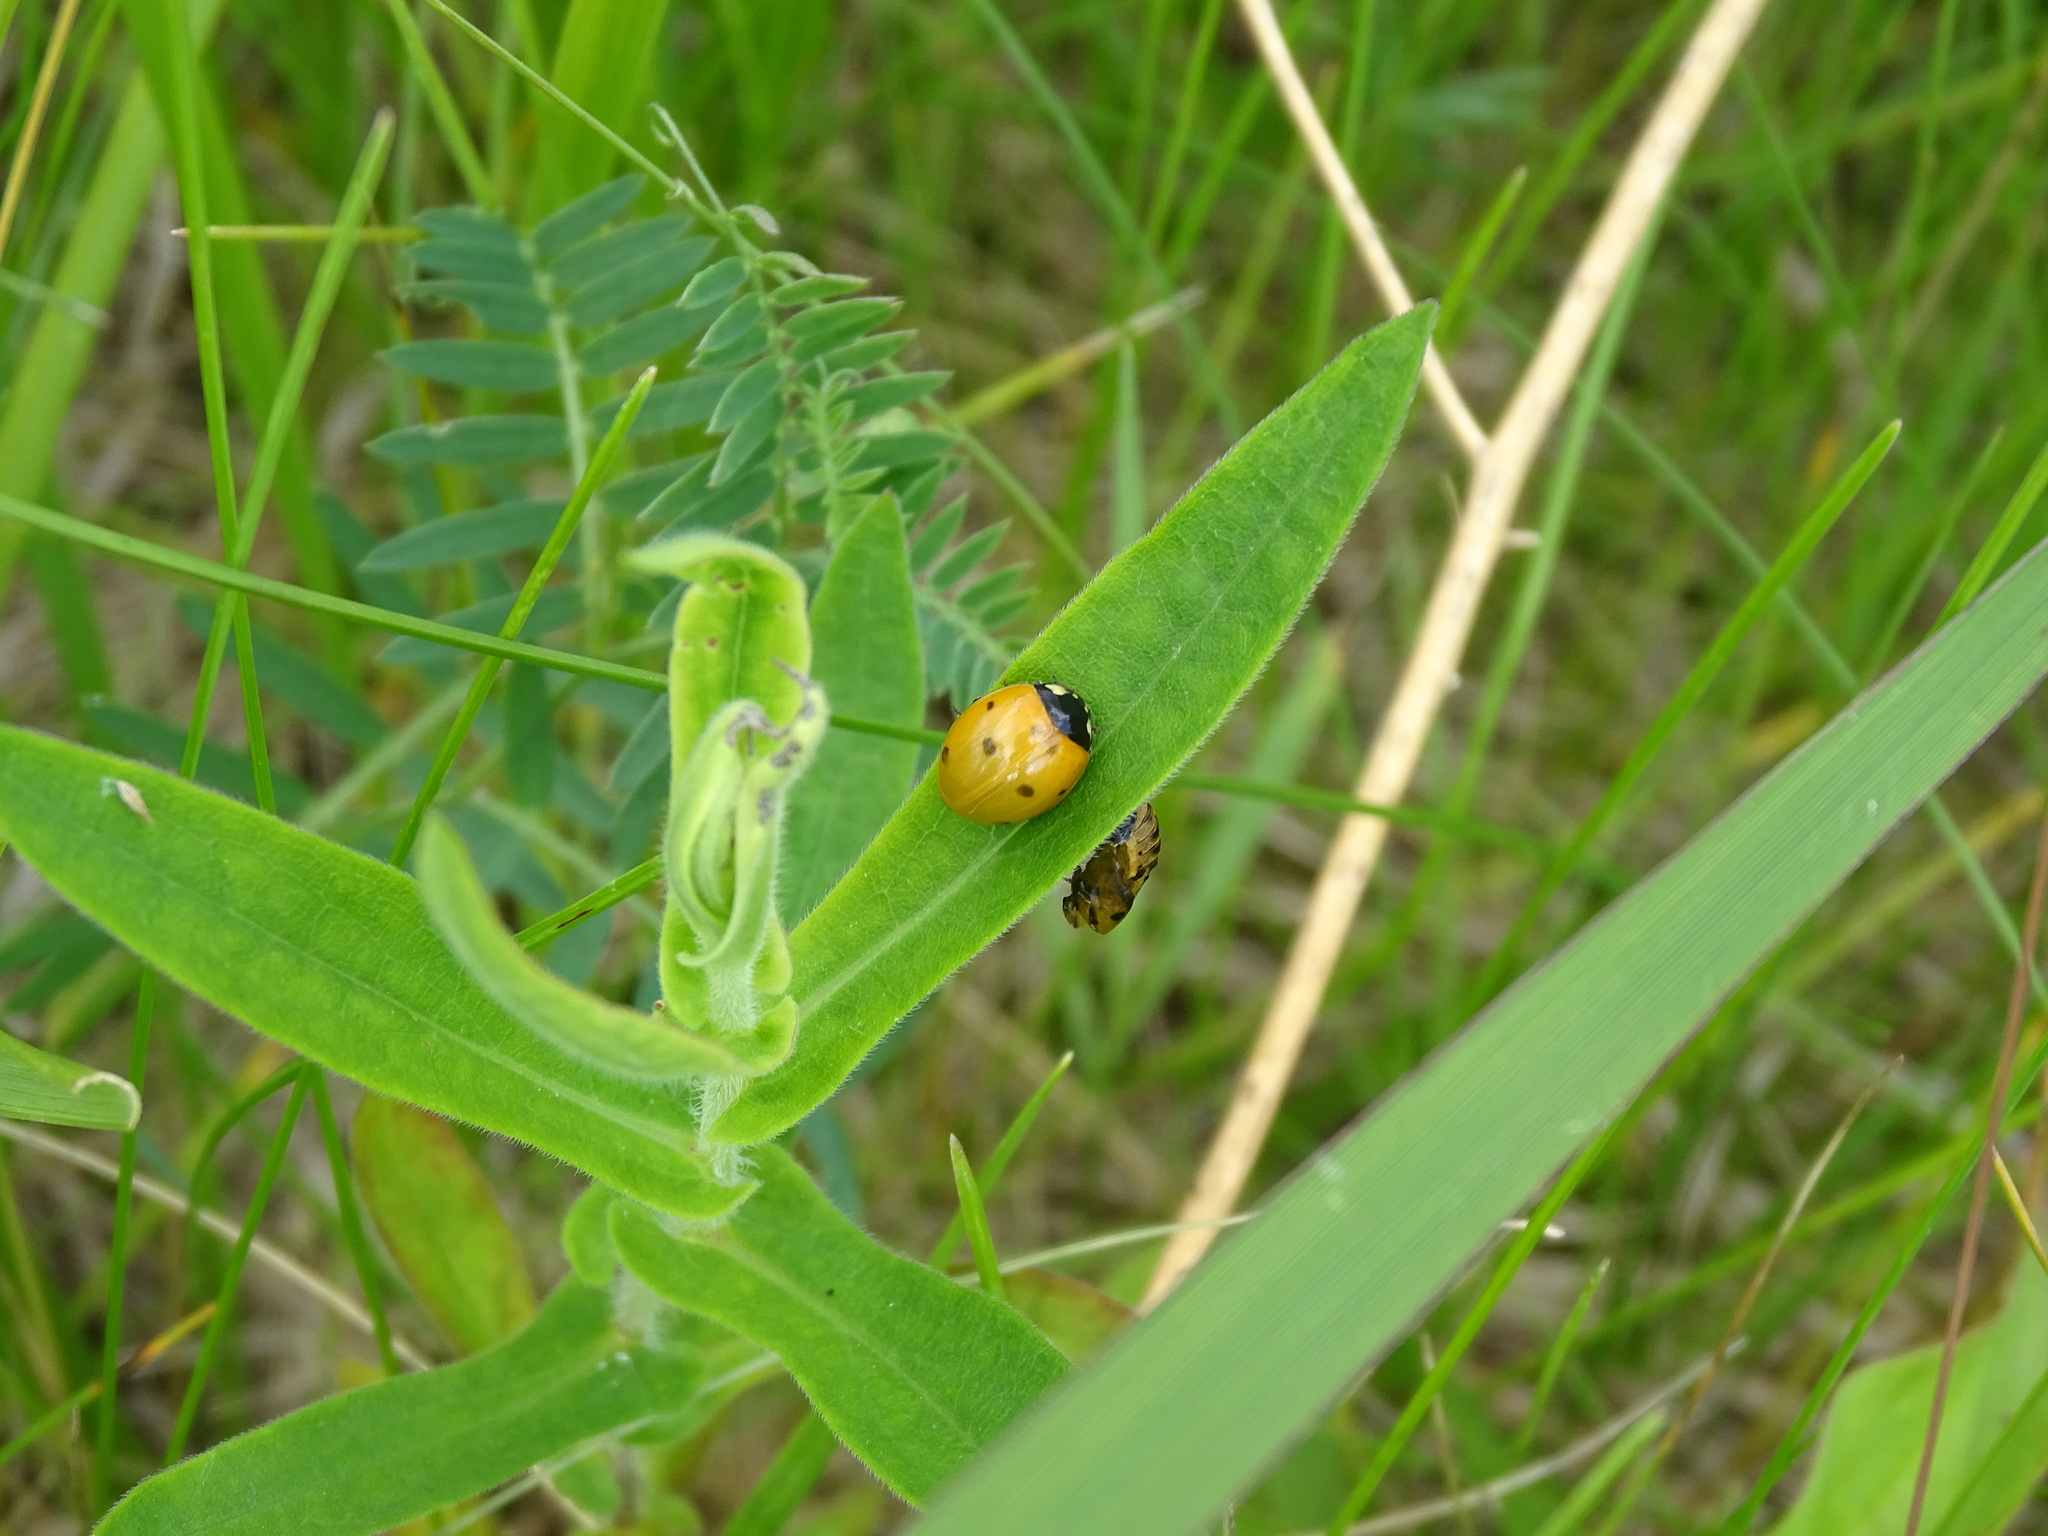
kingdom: Animalia
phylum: Arthropoda
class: Insecta
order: Coleoptera
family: Coccinellidae
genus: Coccinella
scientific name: Coccinella septempunctata
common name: Sevenspotted lady beetle
